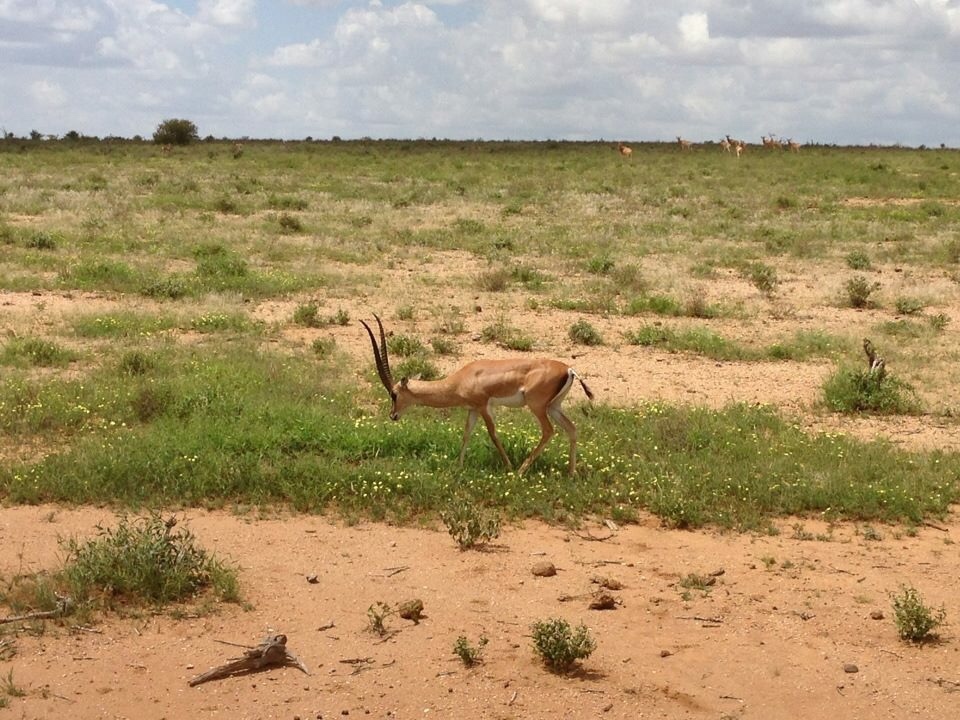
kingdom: Animalia
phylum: Chordata
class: Mammalia
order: Artiodactyla
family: Bovidae
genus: Nanger
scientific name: Nanger granti
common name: Grant's gazelle
